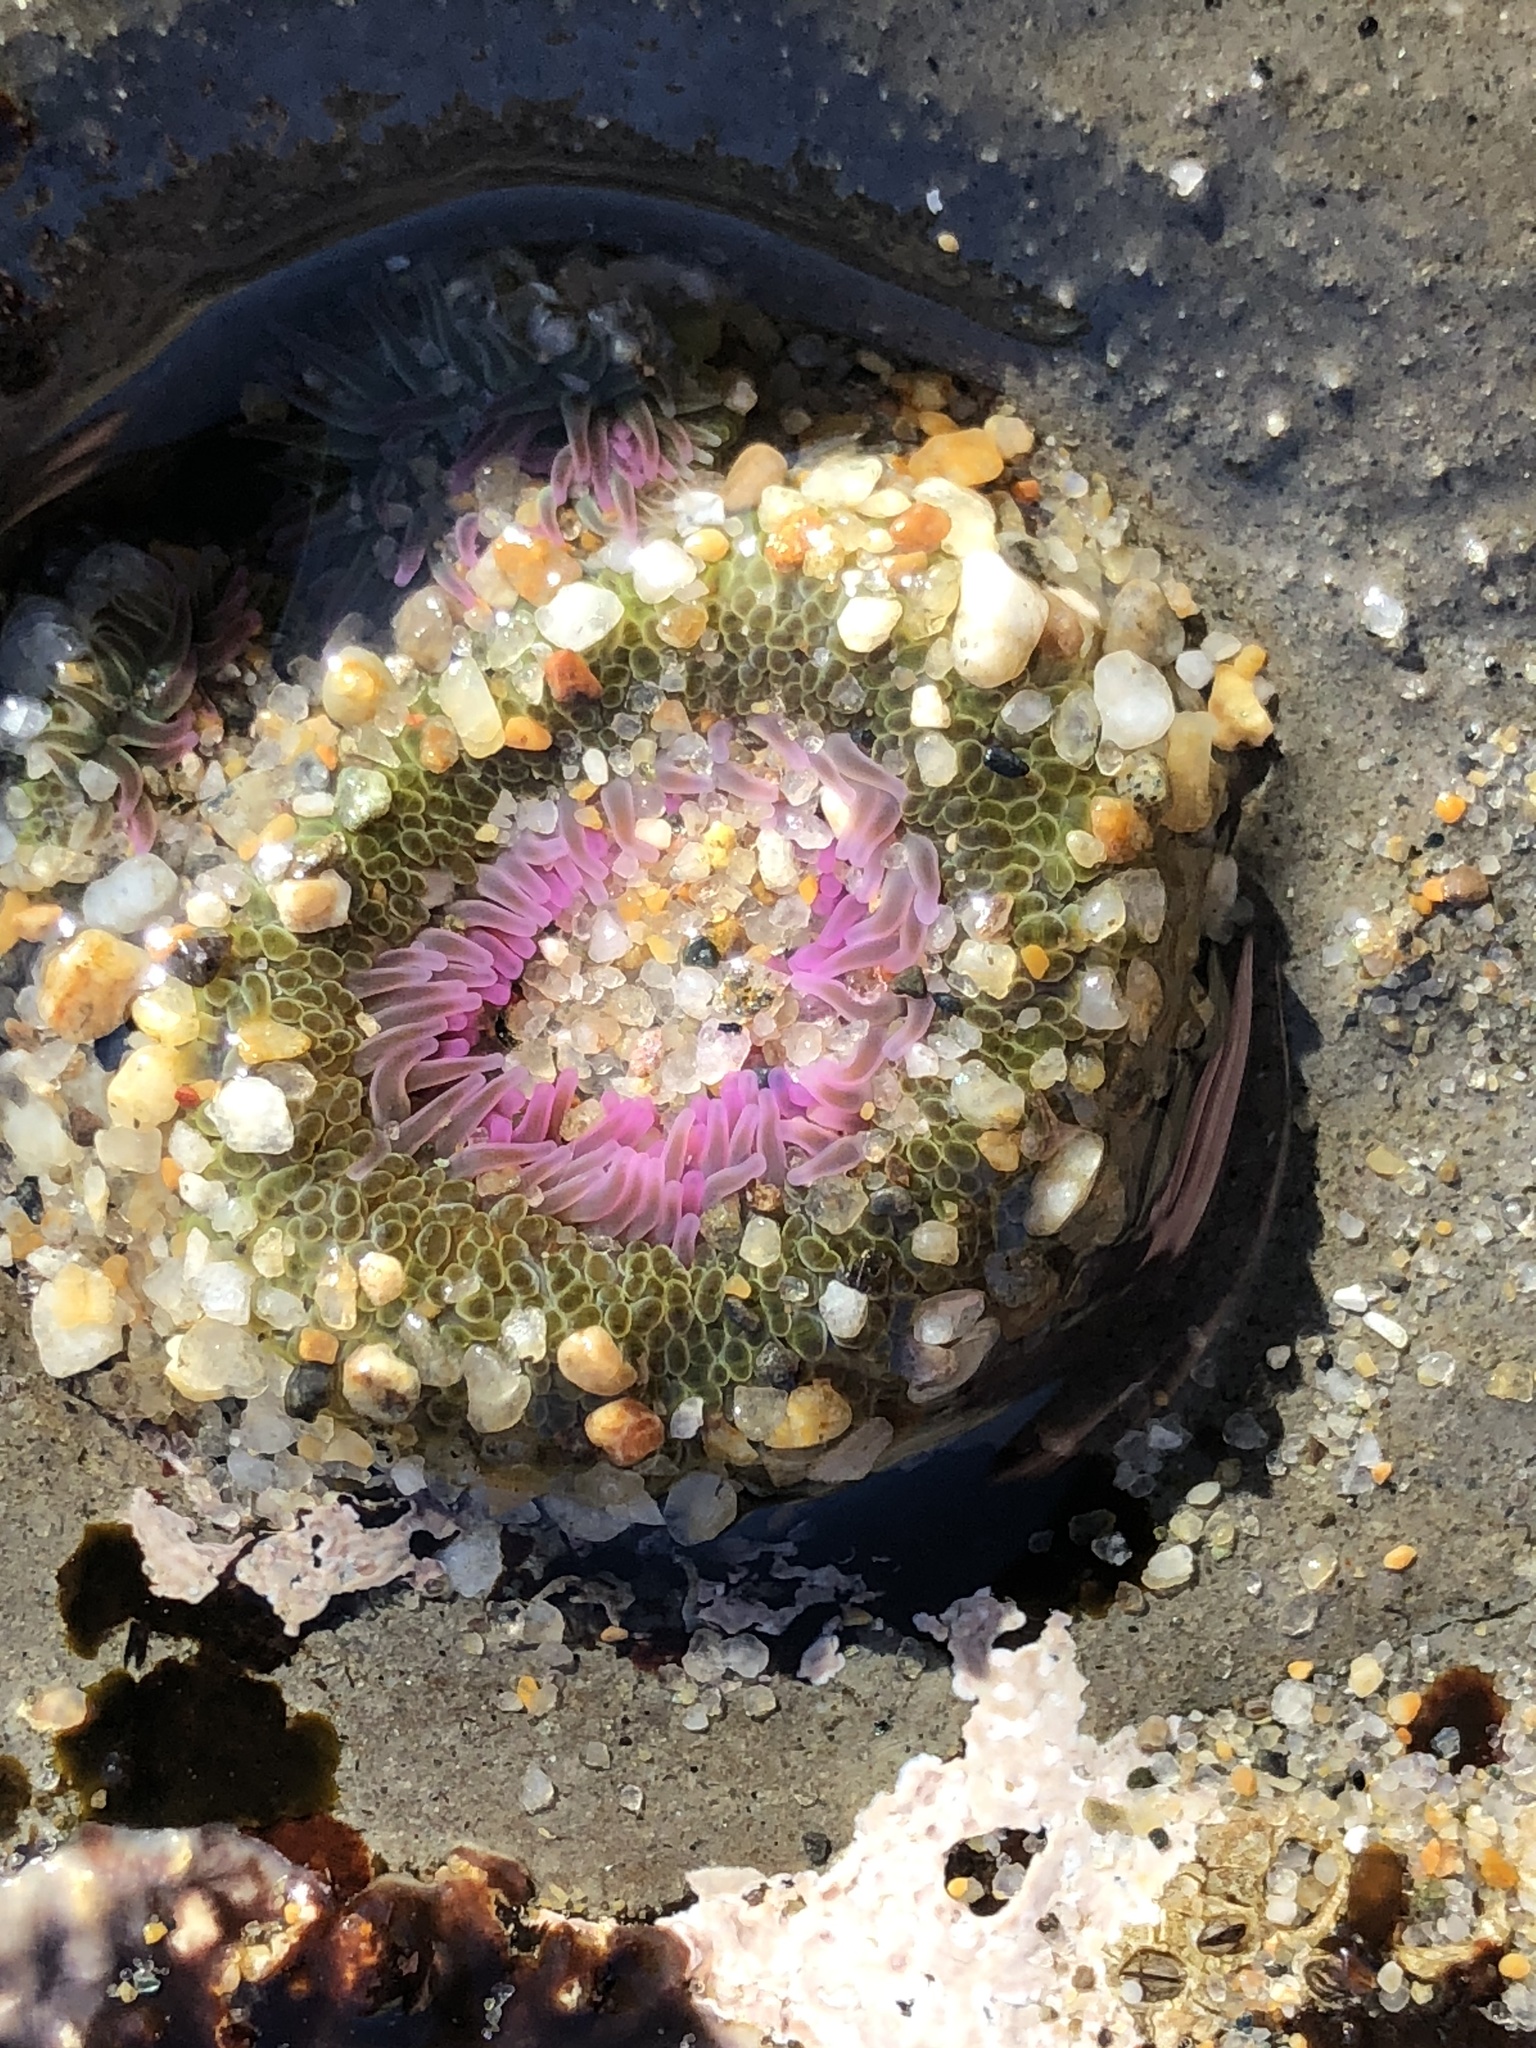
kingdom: Animalia
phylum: Cnidaria
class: Anthozoa
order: Actiniaria
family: Actiniidae
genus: Anthopleura
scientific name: Anthopleura elegantissima
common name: Clonal anemone
